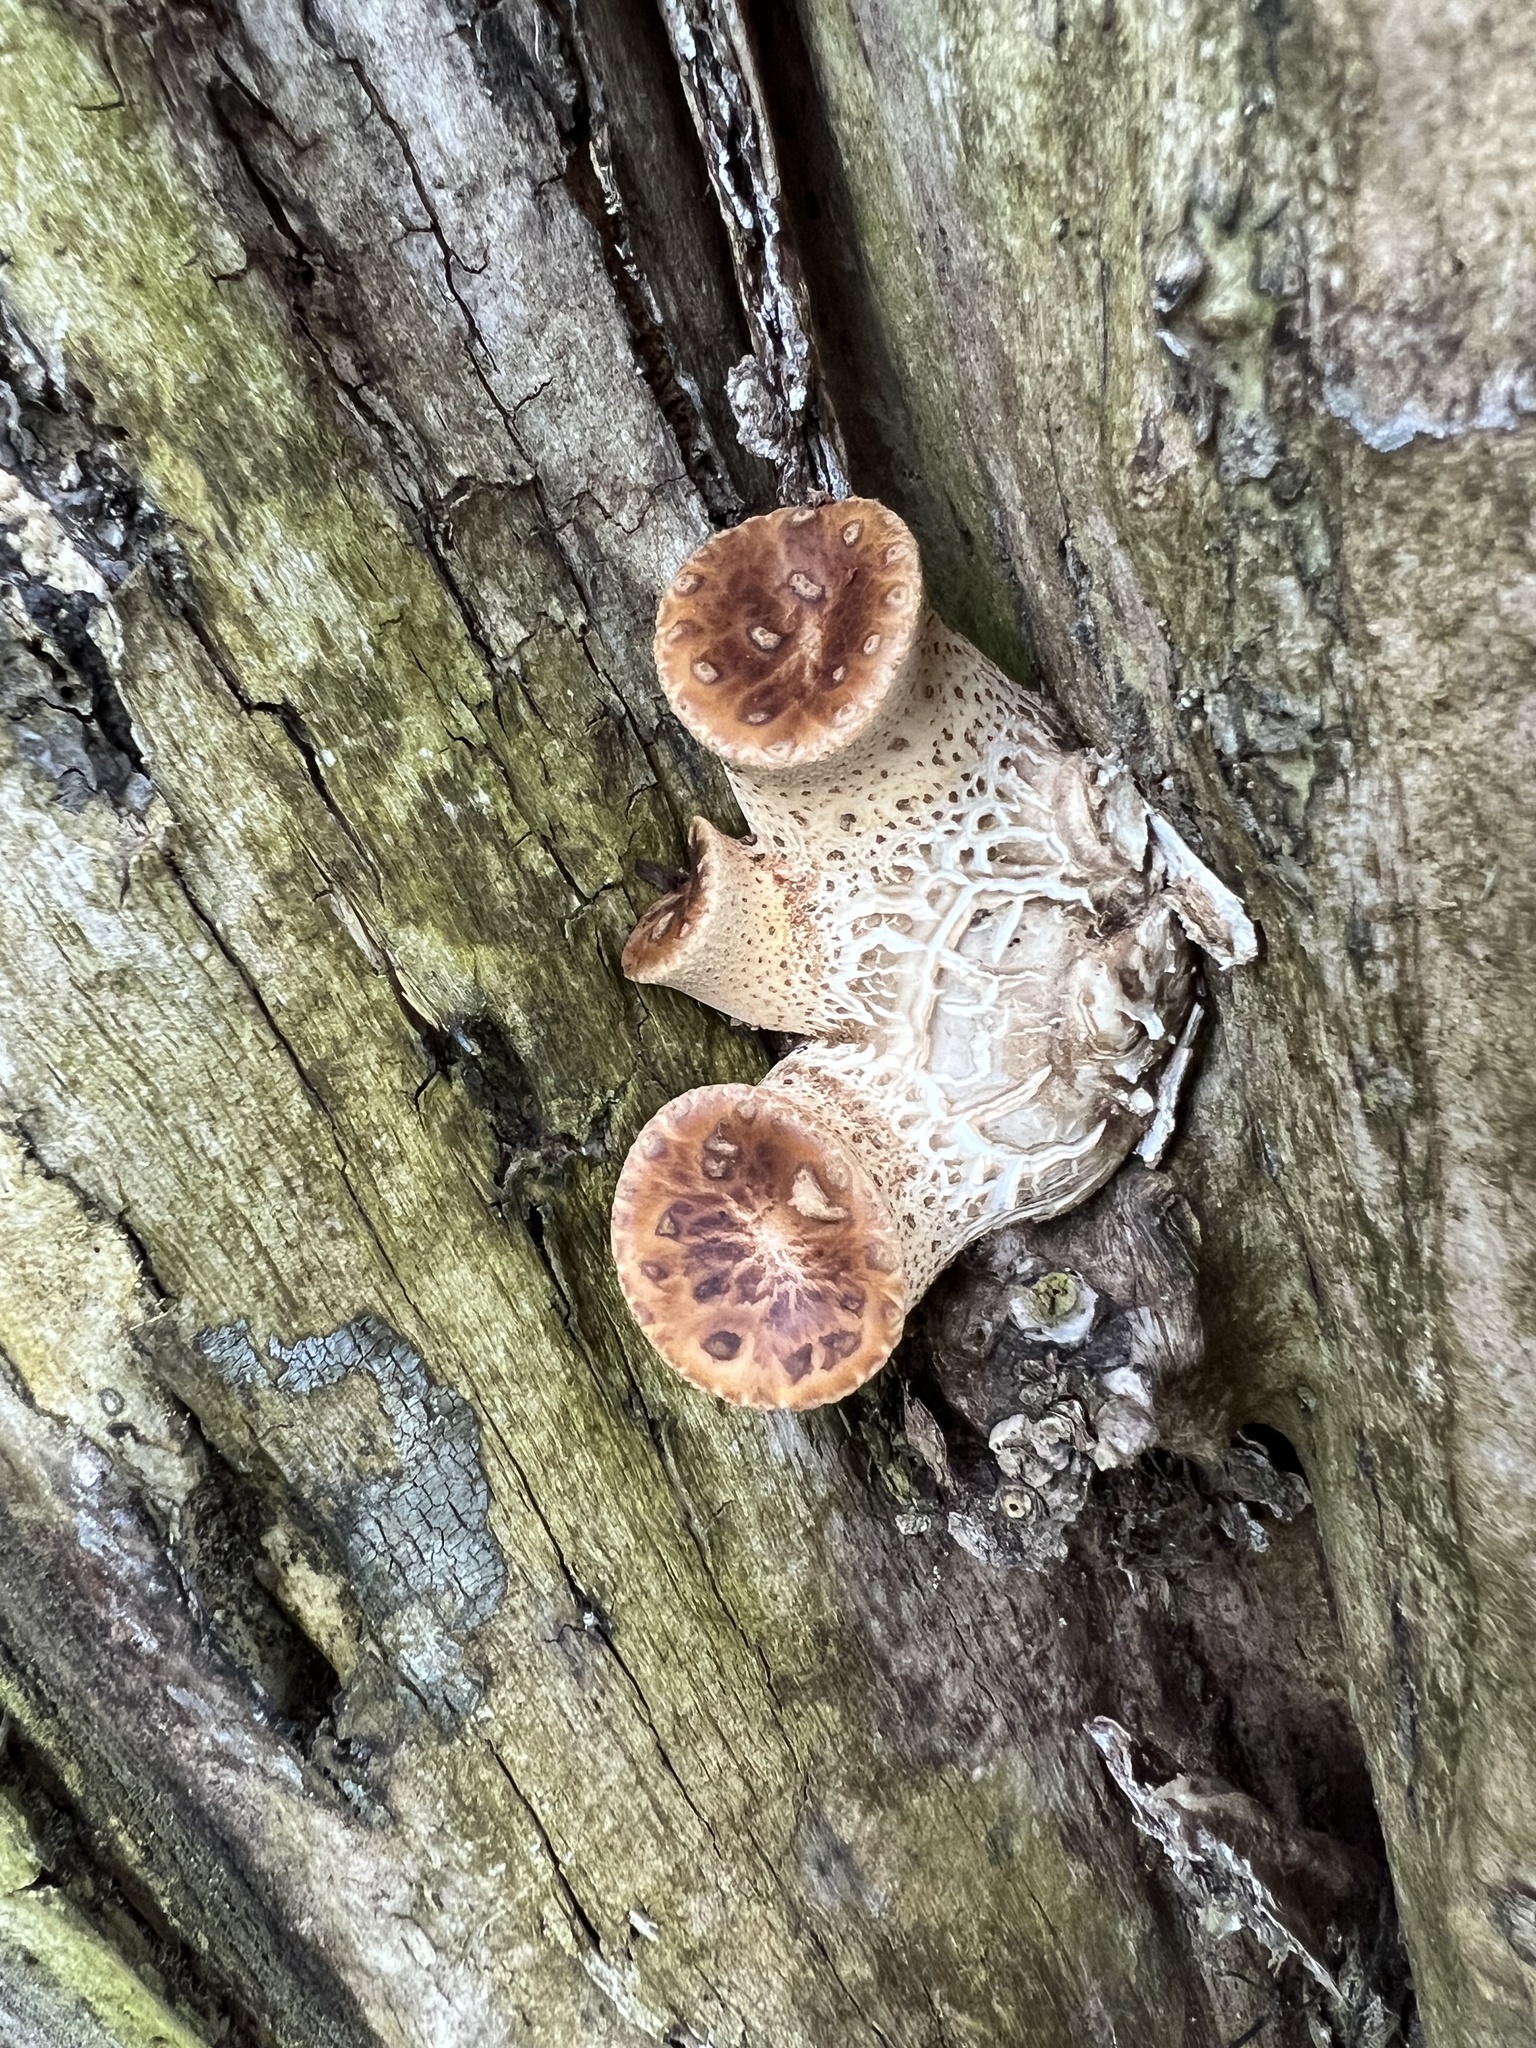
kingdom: Fungi
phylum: Basidiomycota
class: Agaricomycetes
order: Polyporales
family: Polyporaceae
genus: Cerioporus
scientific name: Cerioporus squamosus
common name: Dryad's saddle
